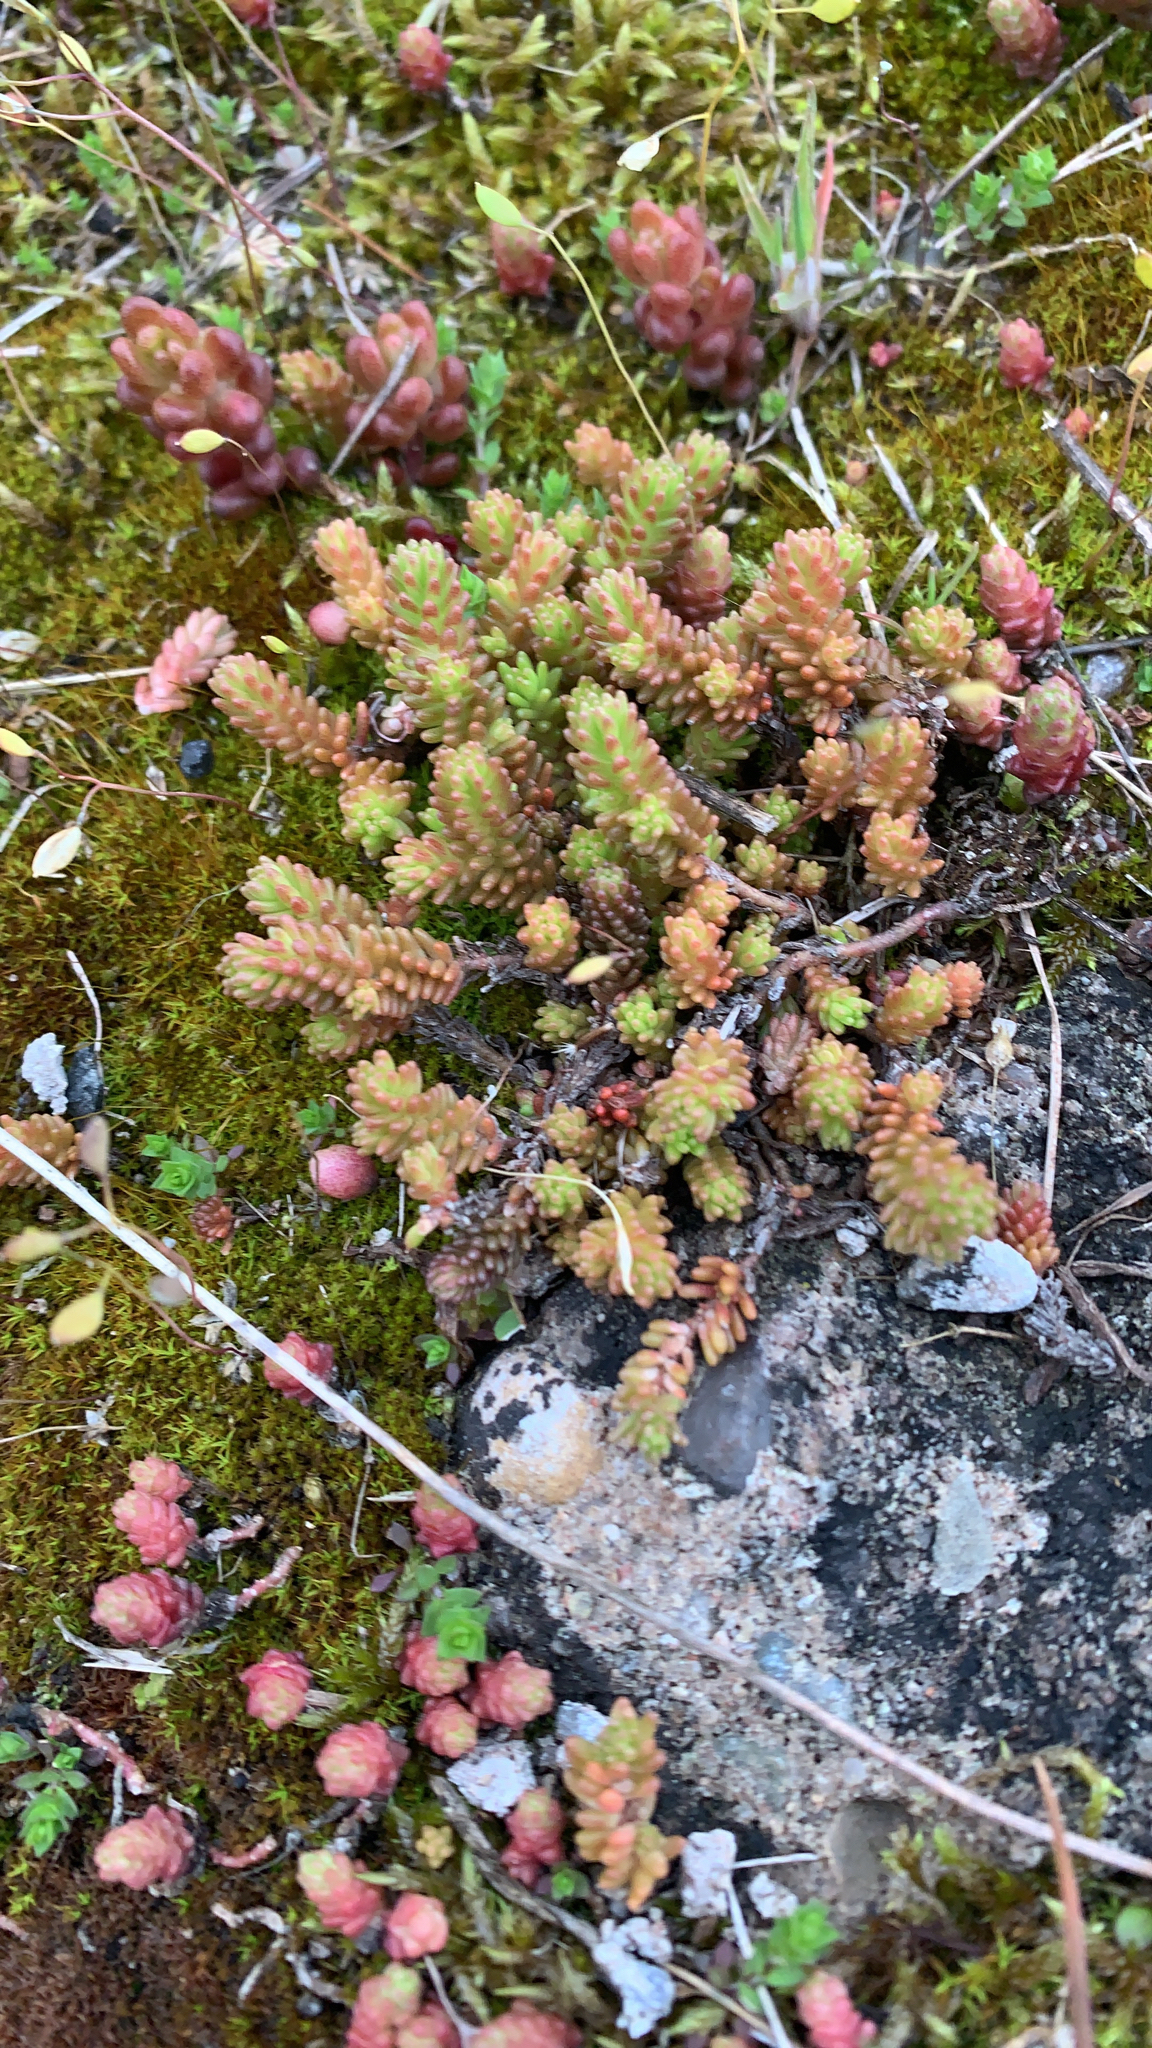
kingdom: Plantae
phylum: Tracheophyta
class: Magnoliopsida
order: Saxifragales
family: Crassulaceae
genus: Sedum
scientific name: Sedum sexangulare
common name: Tasteless stonecrop
